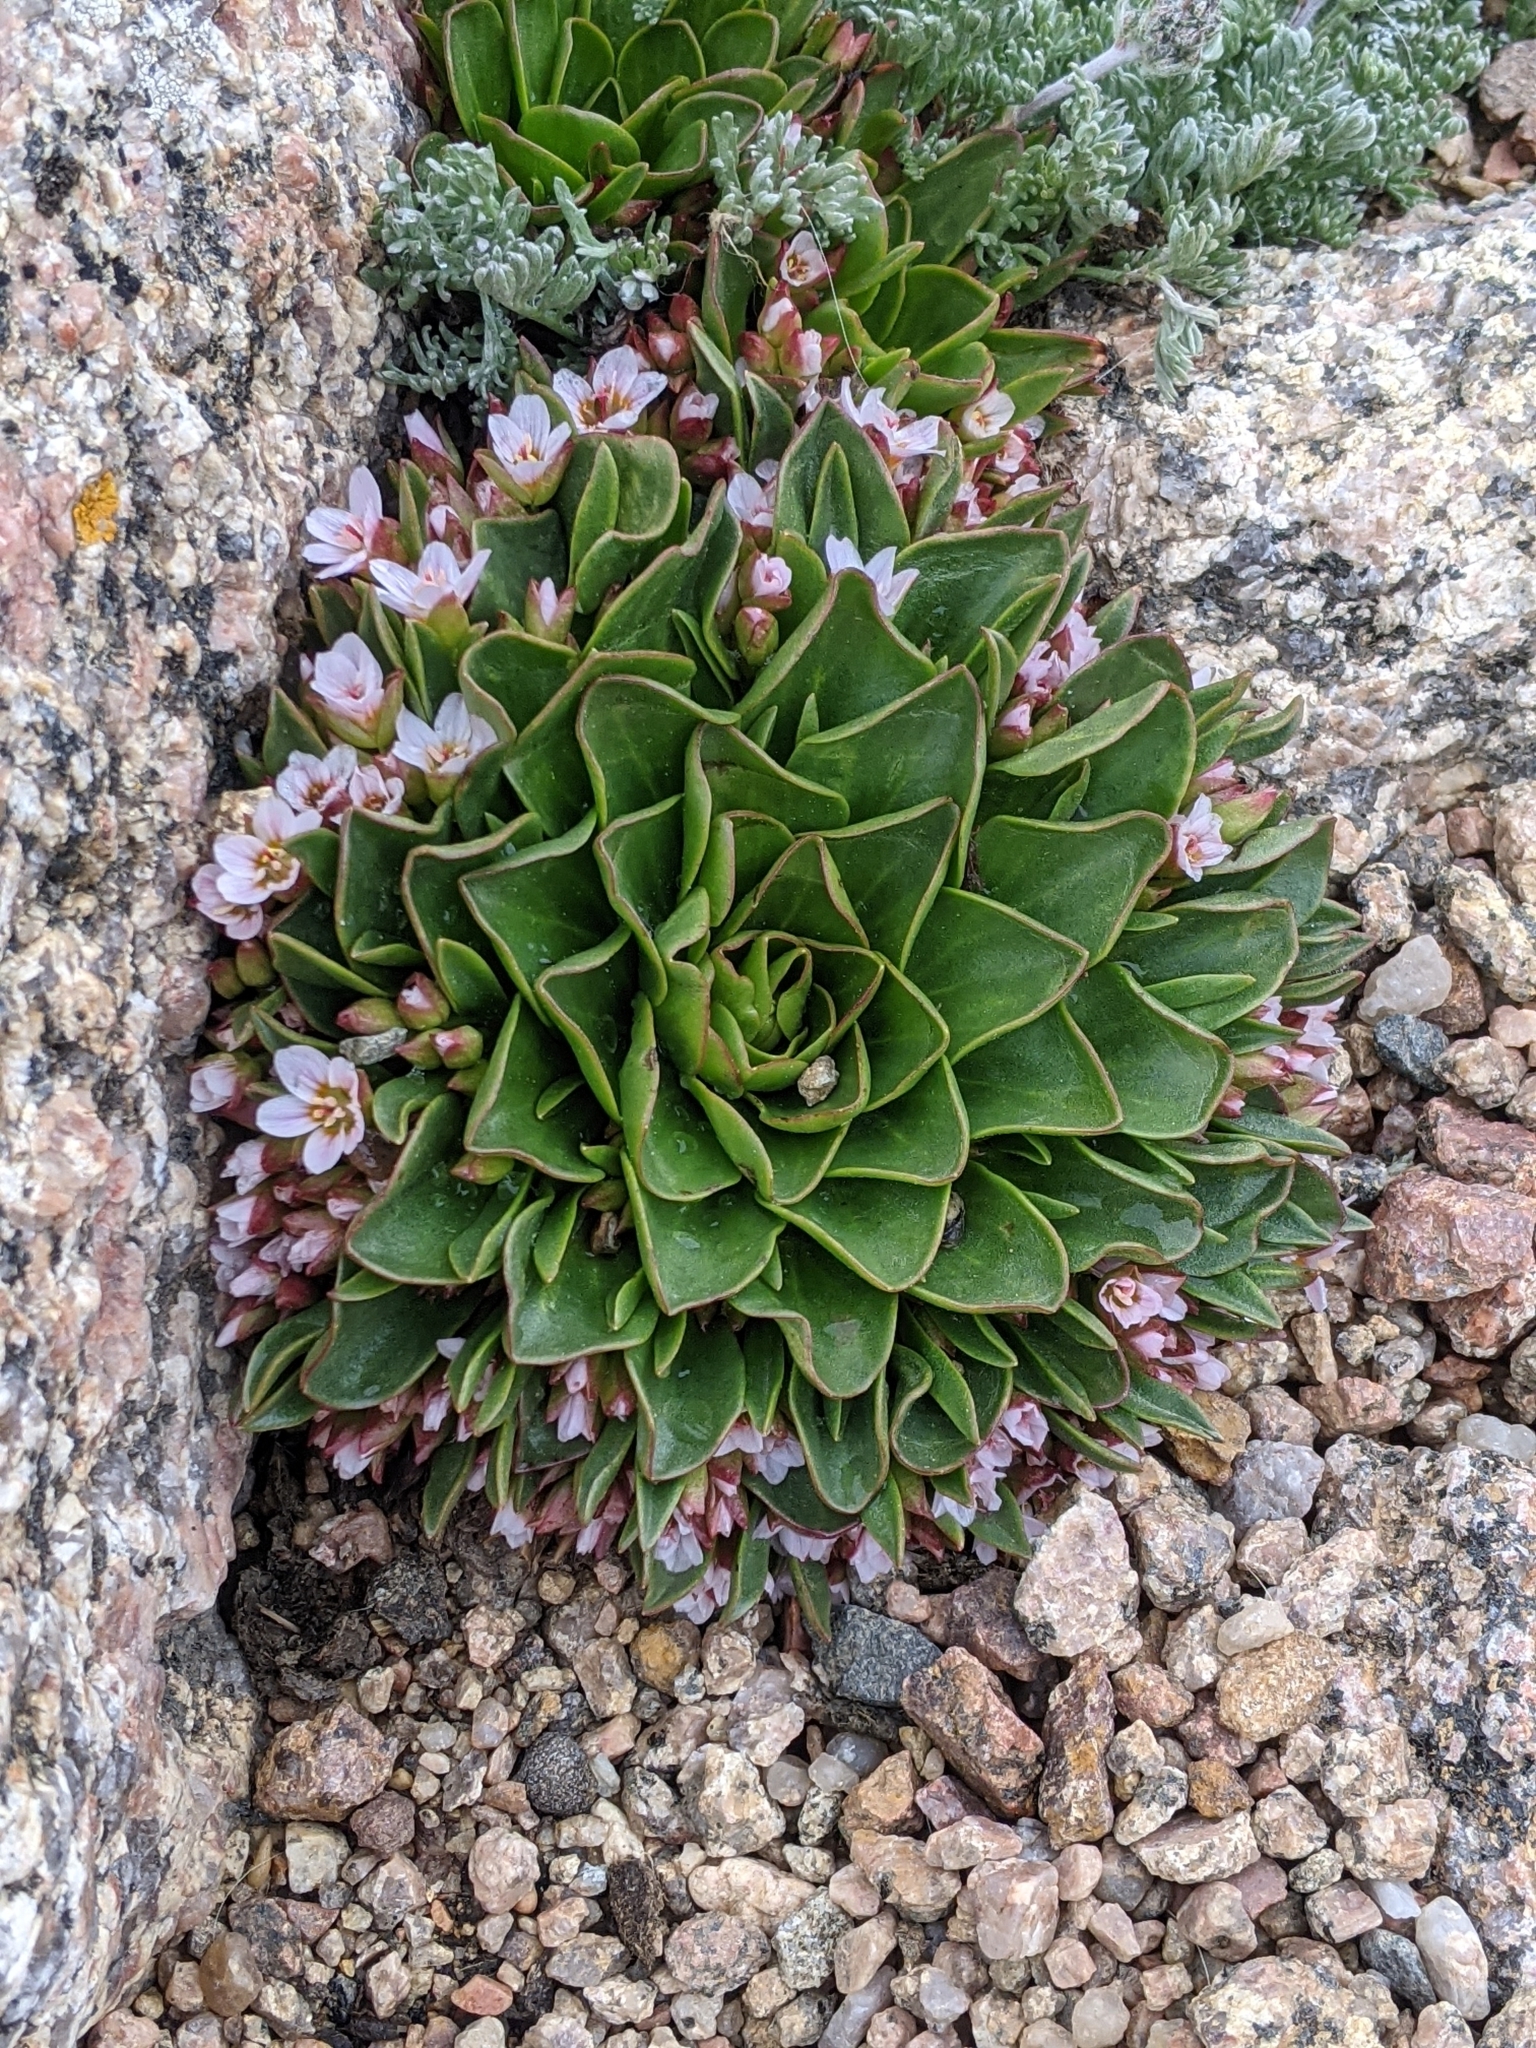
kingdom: Plantae
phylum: Tracheophyta
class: Magnoliopsida
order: Caryophyllales
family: Montiaceae
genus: Claytonia
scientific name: Claytonia megarhiza
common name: Alpine spring beauty
